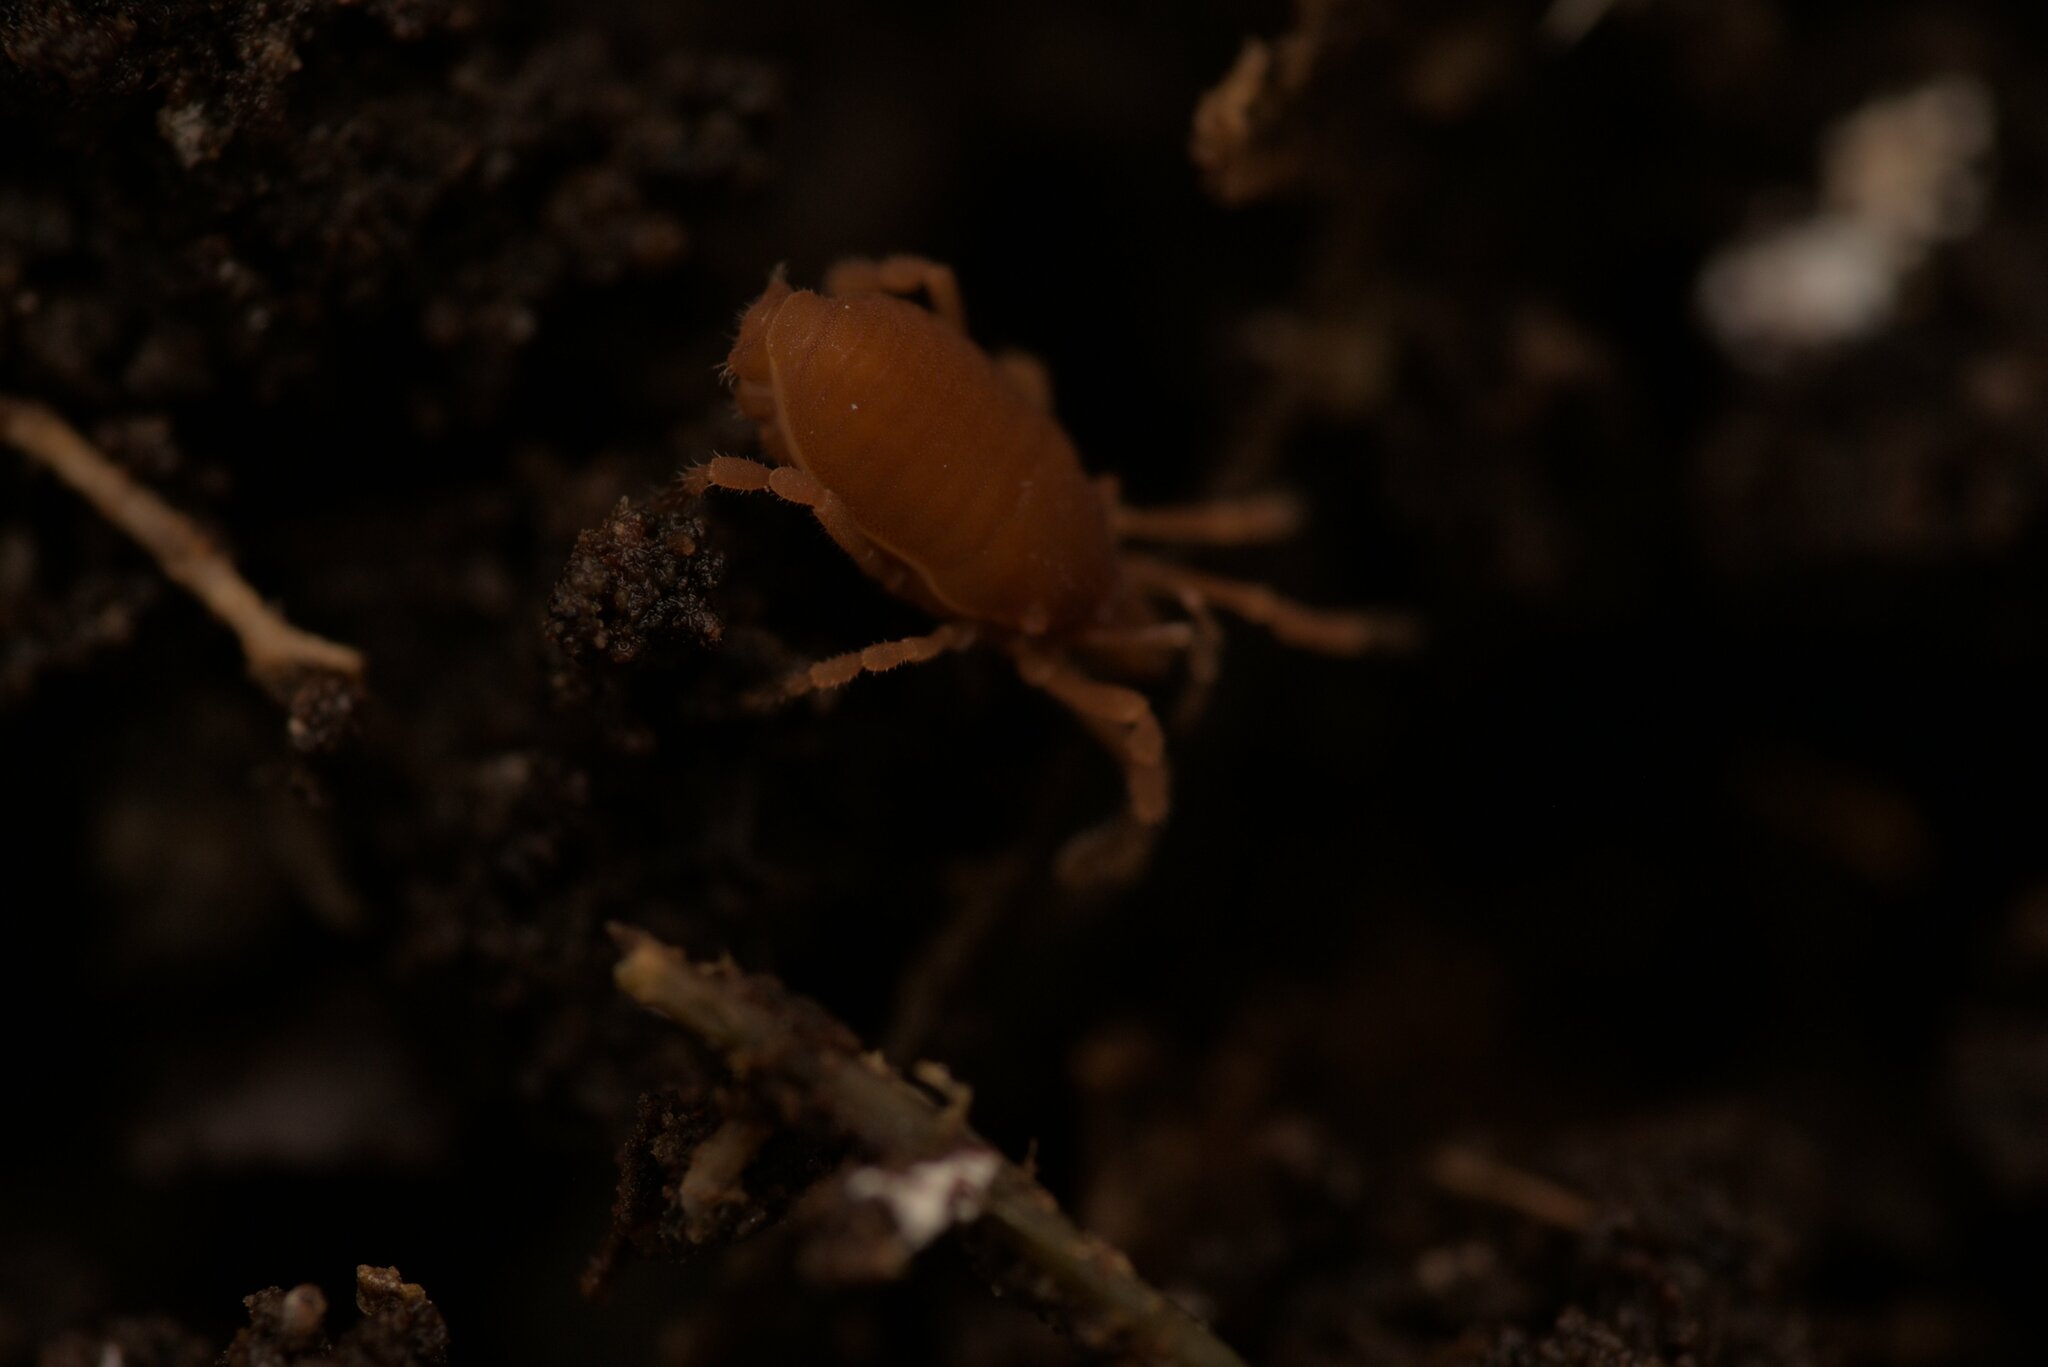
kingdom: Animalia
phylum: Arthropoda
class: Arachnida
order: Opiliones
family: Sironidae
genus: Siro
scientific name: Siro rubens
